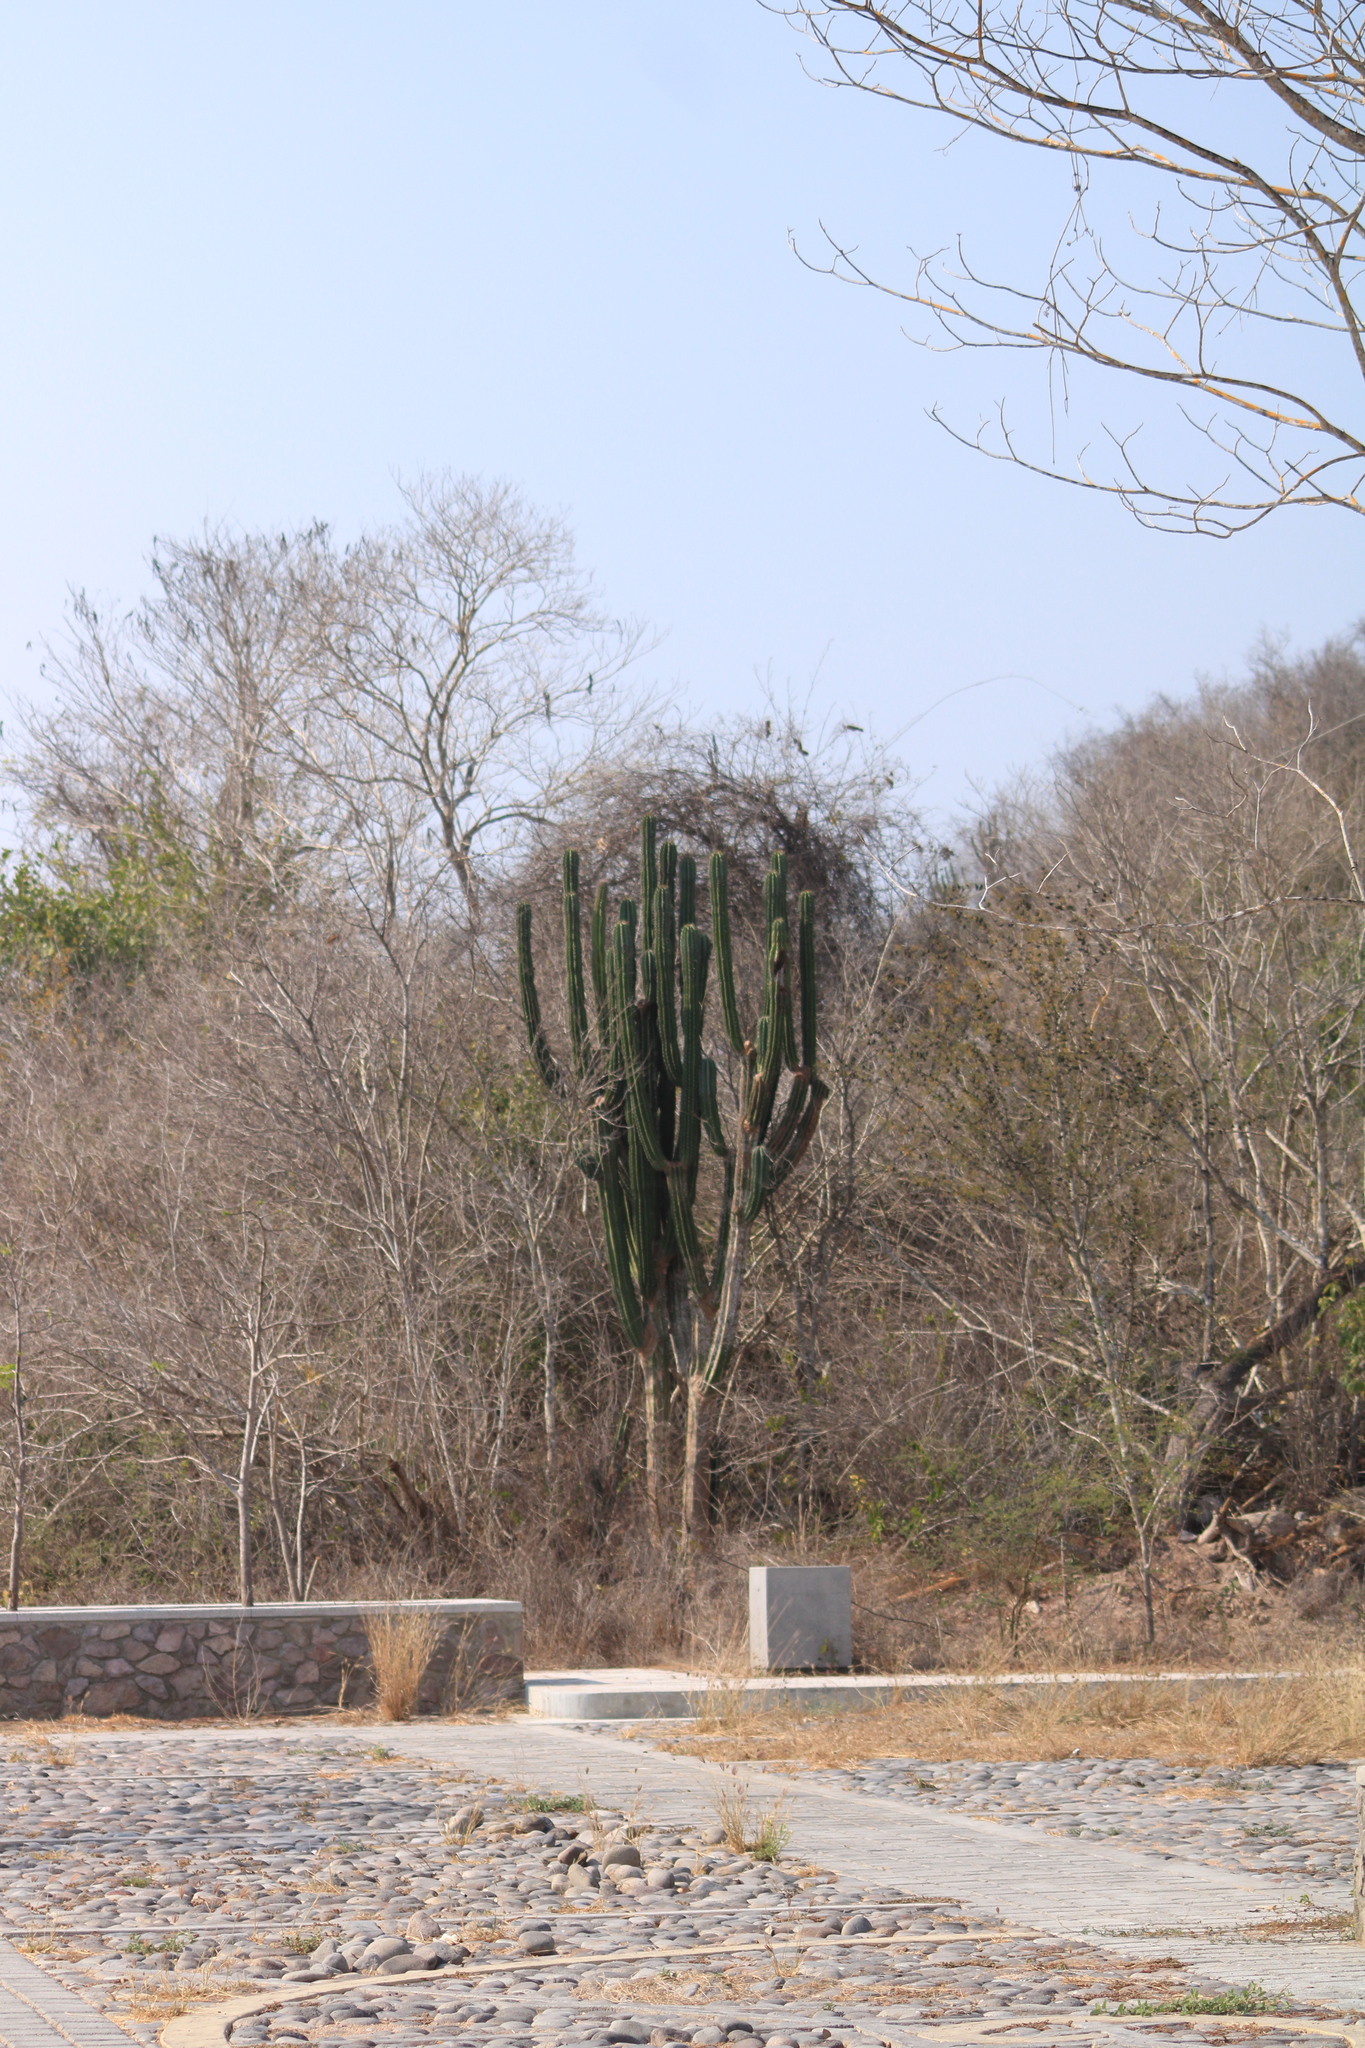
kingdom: Plantae
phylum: Tracheophyta
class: Magnoliopsida
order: Caryophyllales
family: Cactaceae
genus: Pachycereus
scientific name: Pachycereus pecten-aboriginum
